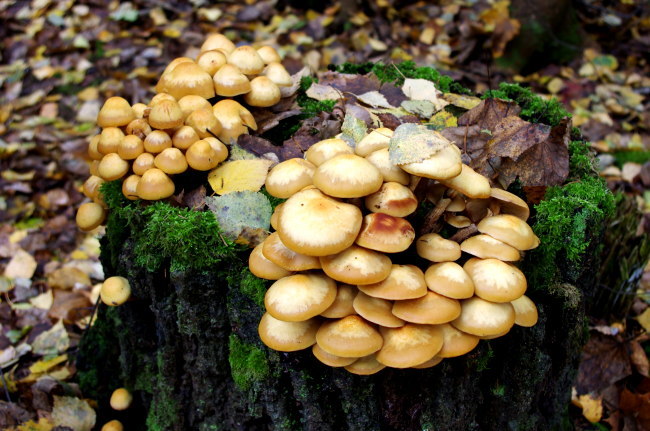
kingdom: Fungi
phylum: Basidiomycota
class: Agaricomycetes
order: Agaricales
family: Strophariaceae
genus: Kuehneromyces
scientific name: Kuehneromyces mutabilis
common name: Sheathed woodtuft
